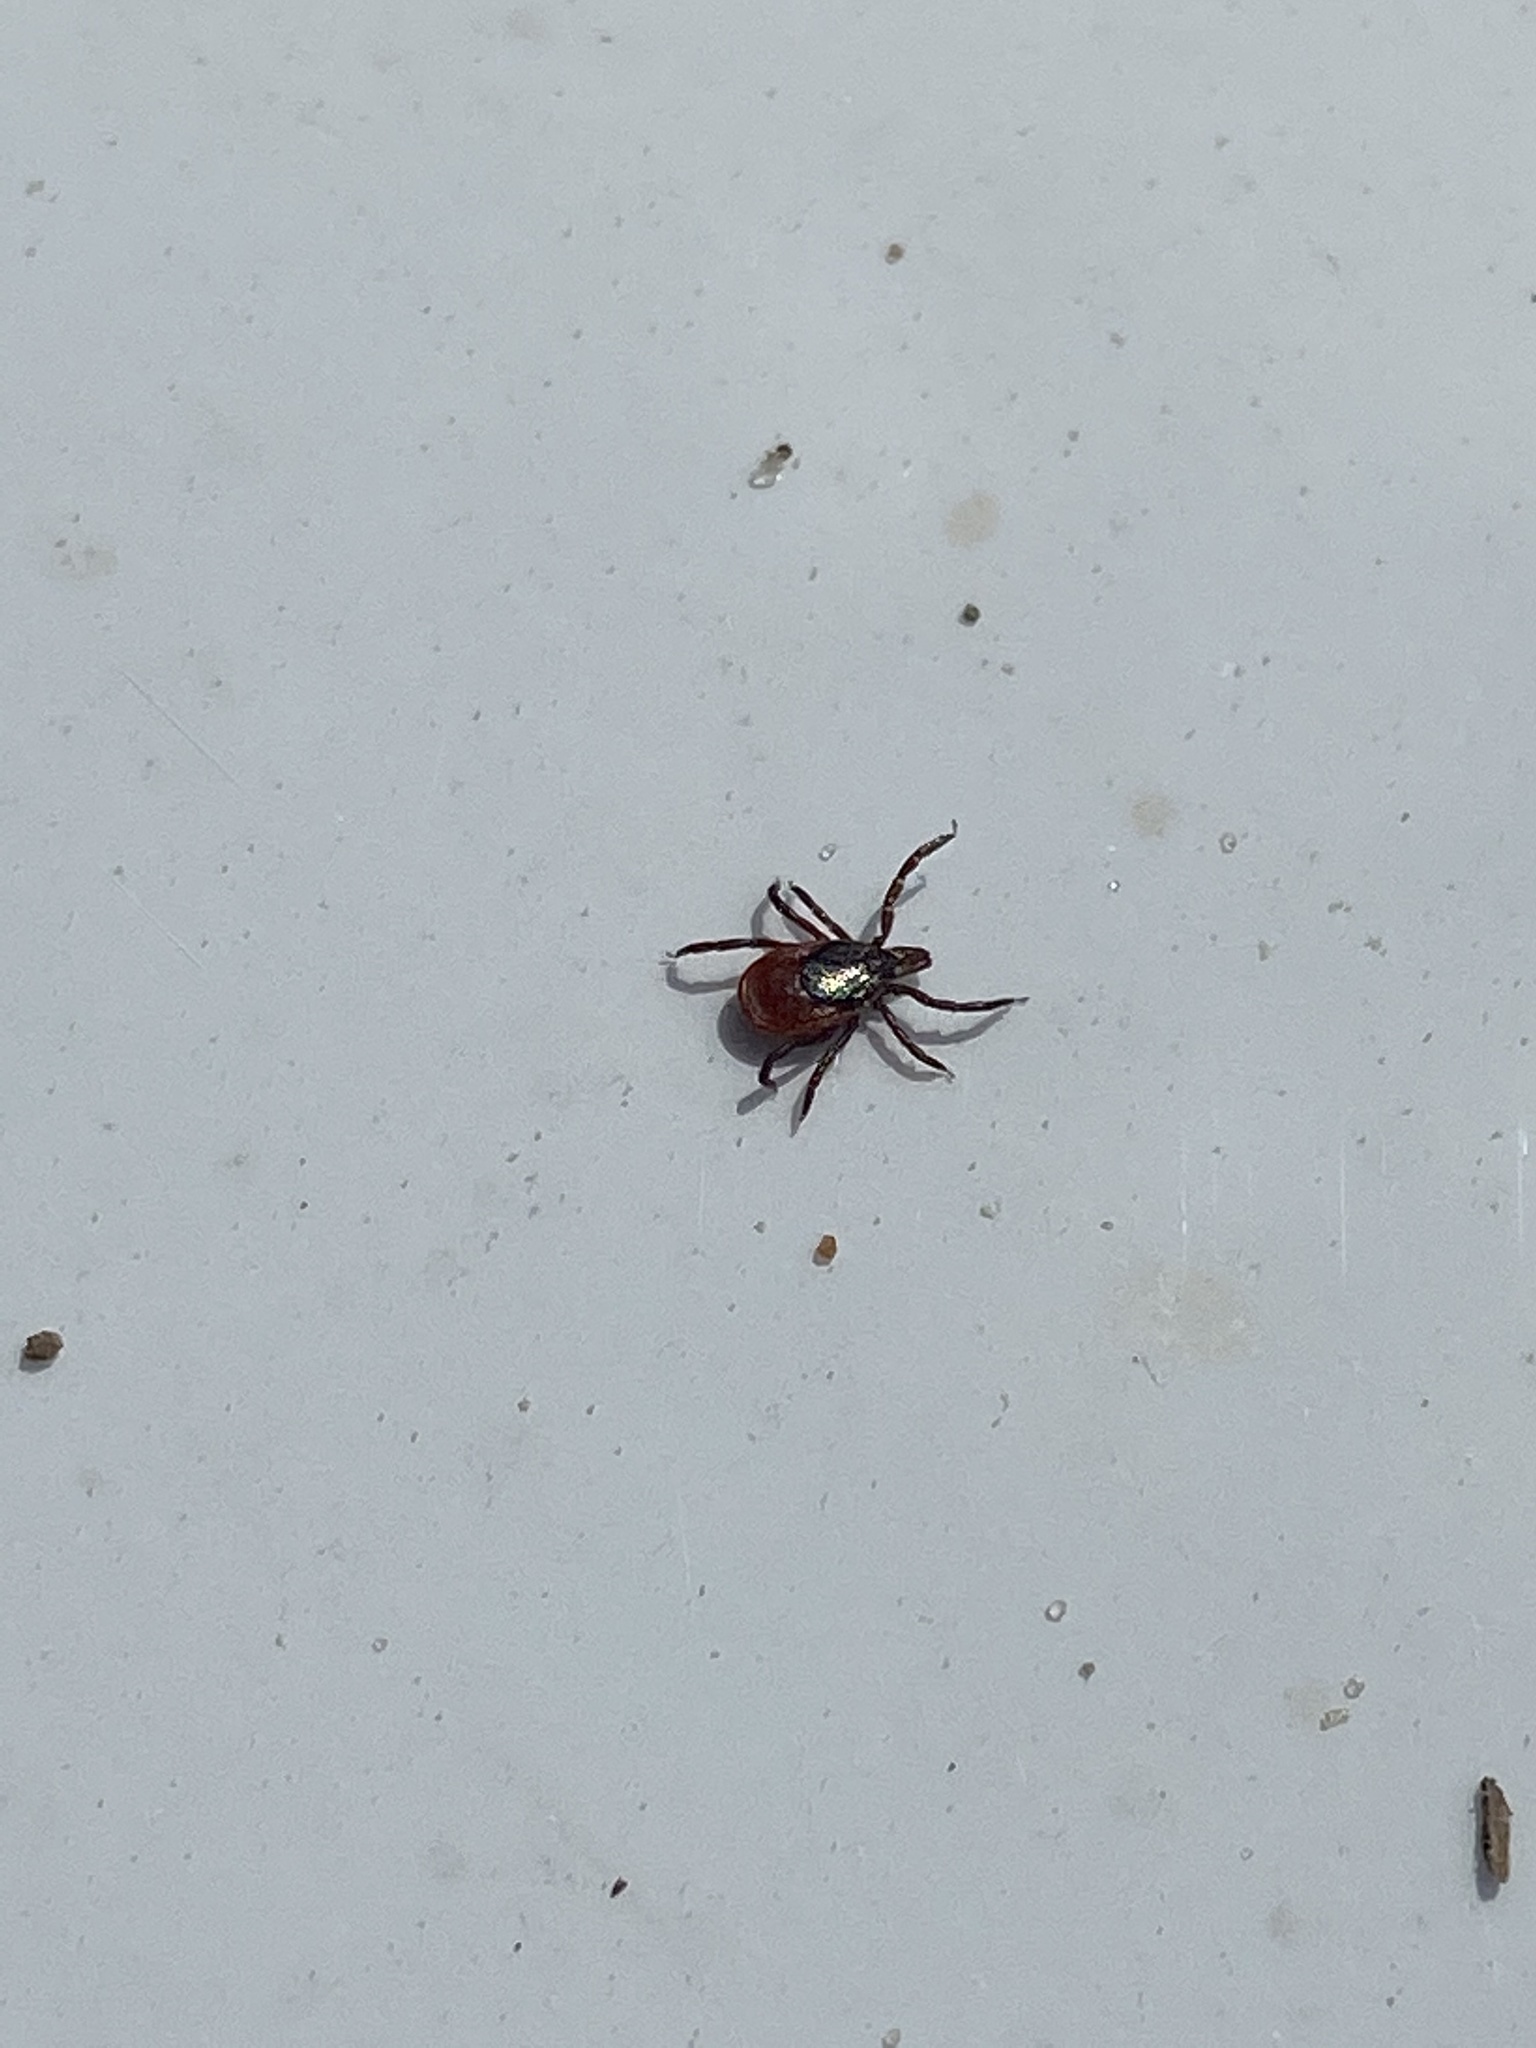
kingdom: Animalia
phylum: Arthropoda
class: Arachnida
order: Ixodida
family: Ixodidae
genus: Ixodes
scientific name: Ixodes scapularis
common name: Black legged tick
